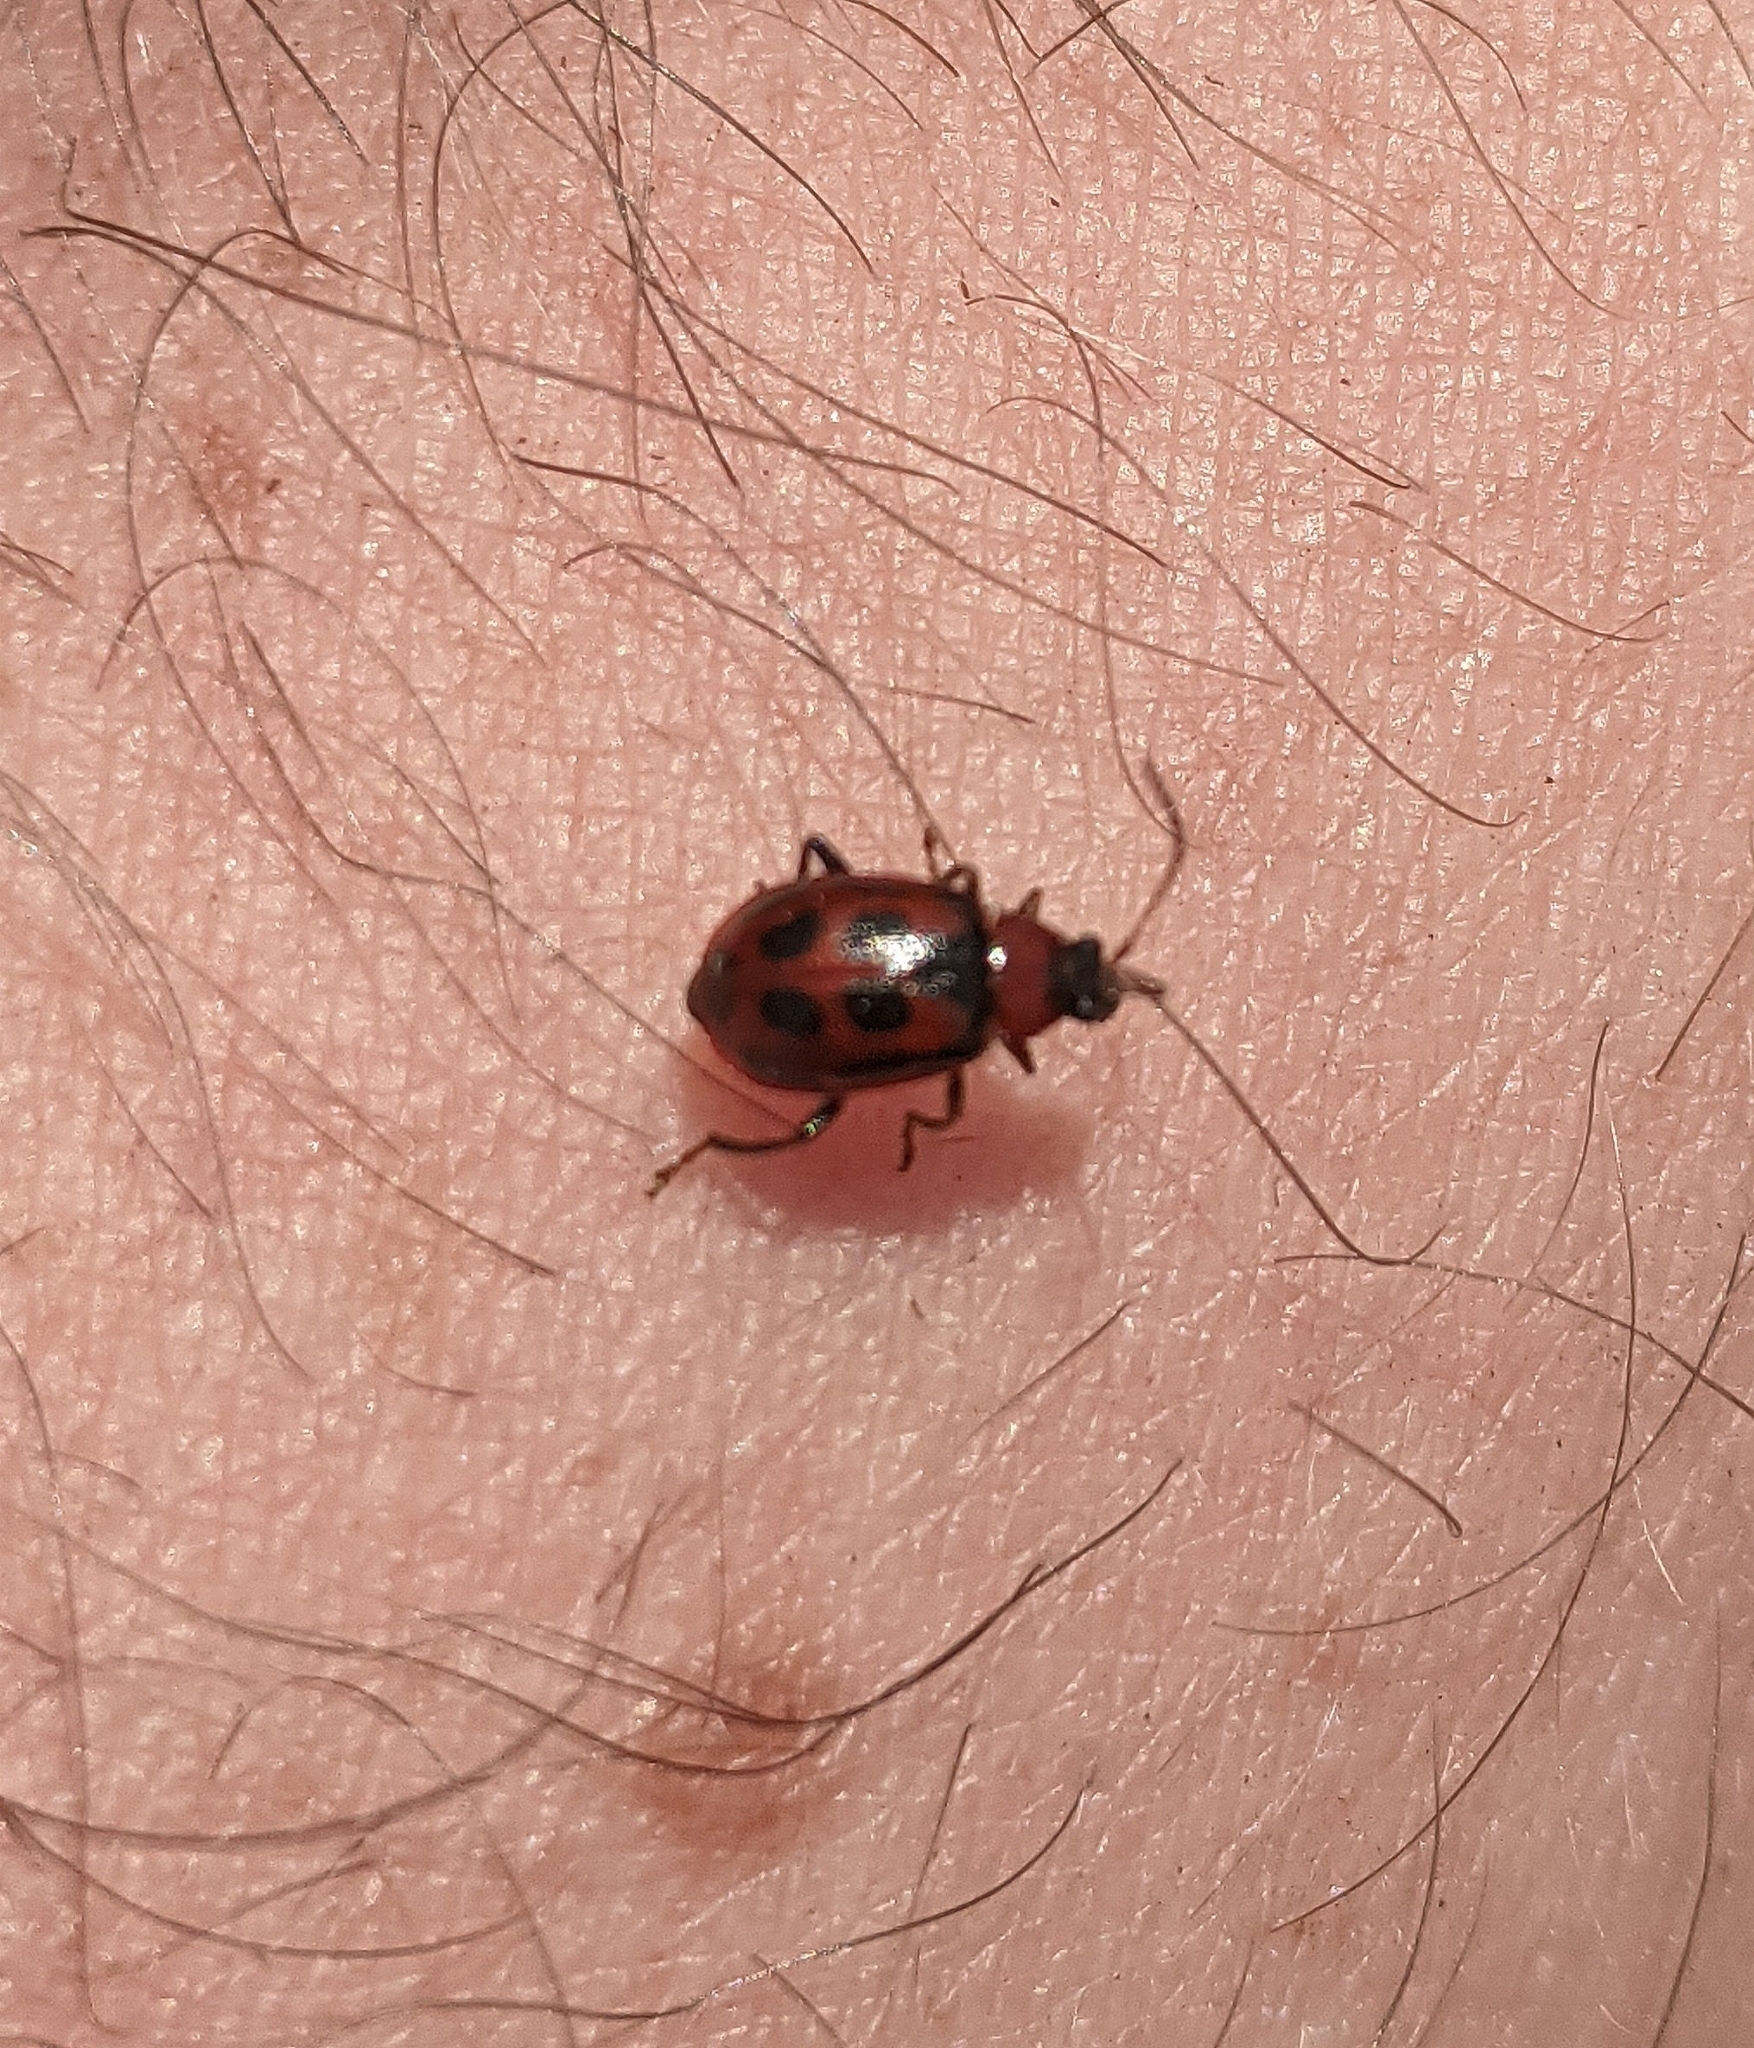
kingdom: Animalia
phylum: Arthropoda
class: Insecta
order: Coleoptera
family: Chrysomelidae
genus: Cerotoma
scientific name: Cerotoma trifurcata
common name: Bean leaf beetle
